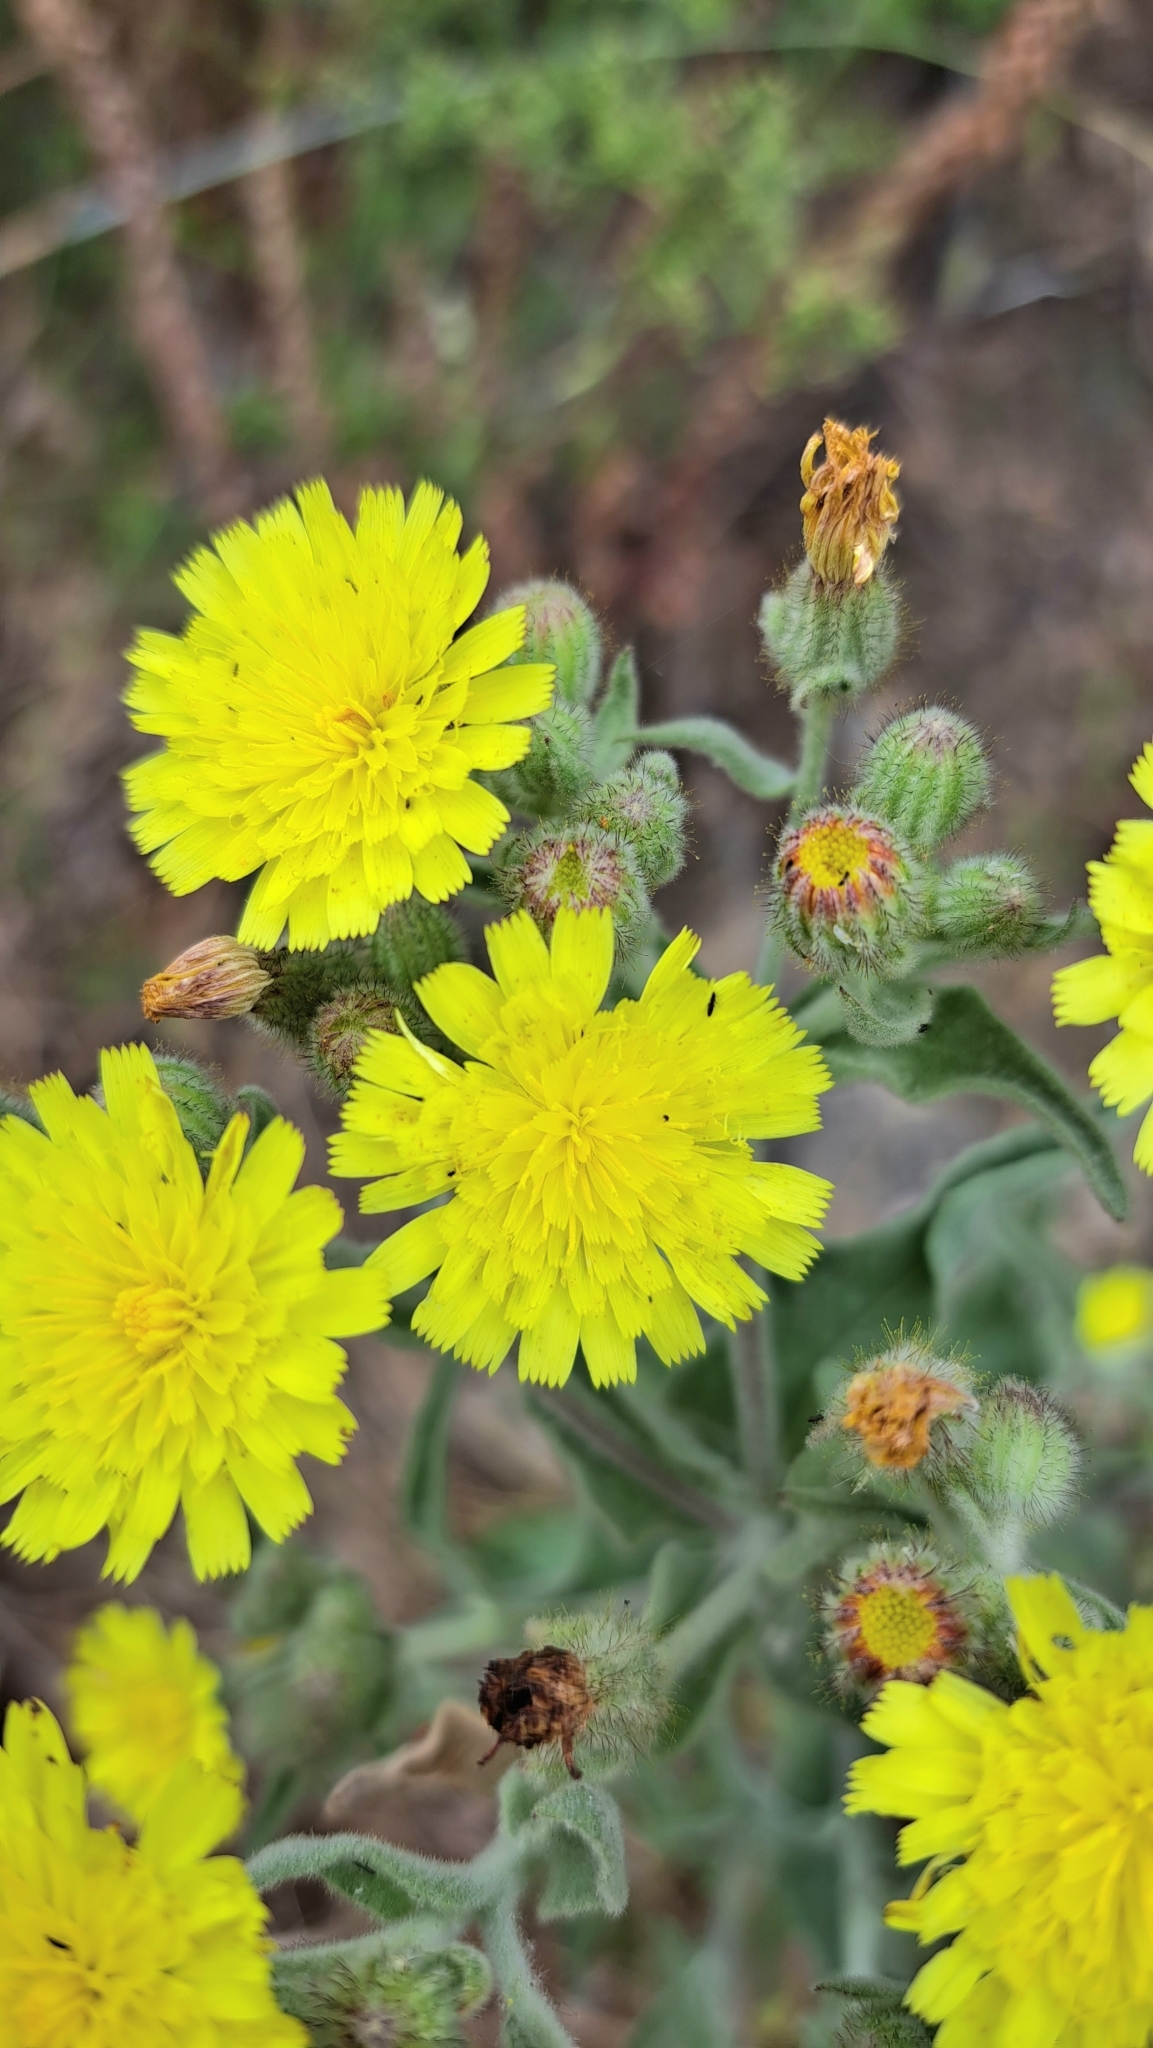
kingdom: Plantae
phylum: Tracheophyta
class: Magnoliopsida
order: Asterales
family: Asteraceae
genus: Andryala
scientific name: Andryala integrifolia
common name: Common andryala
